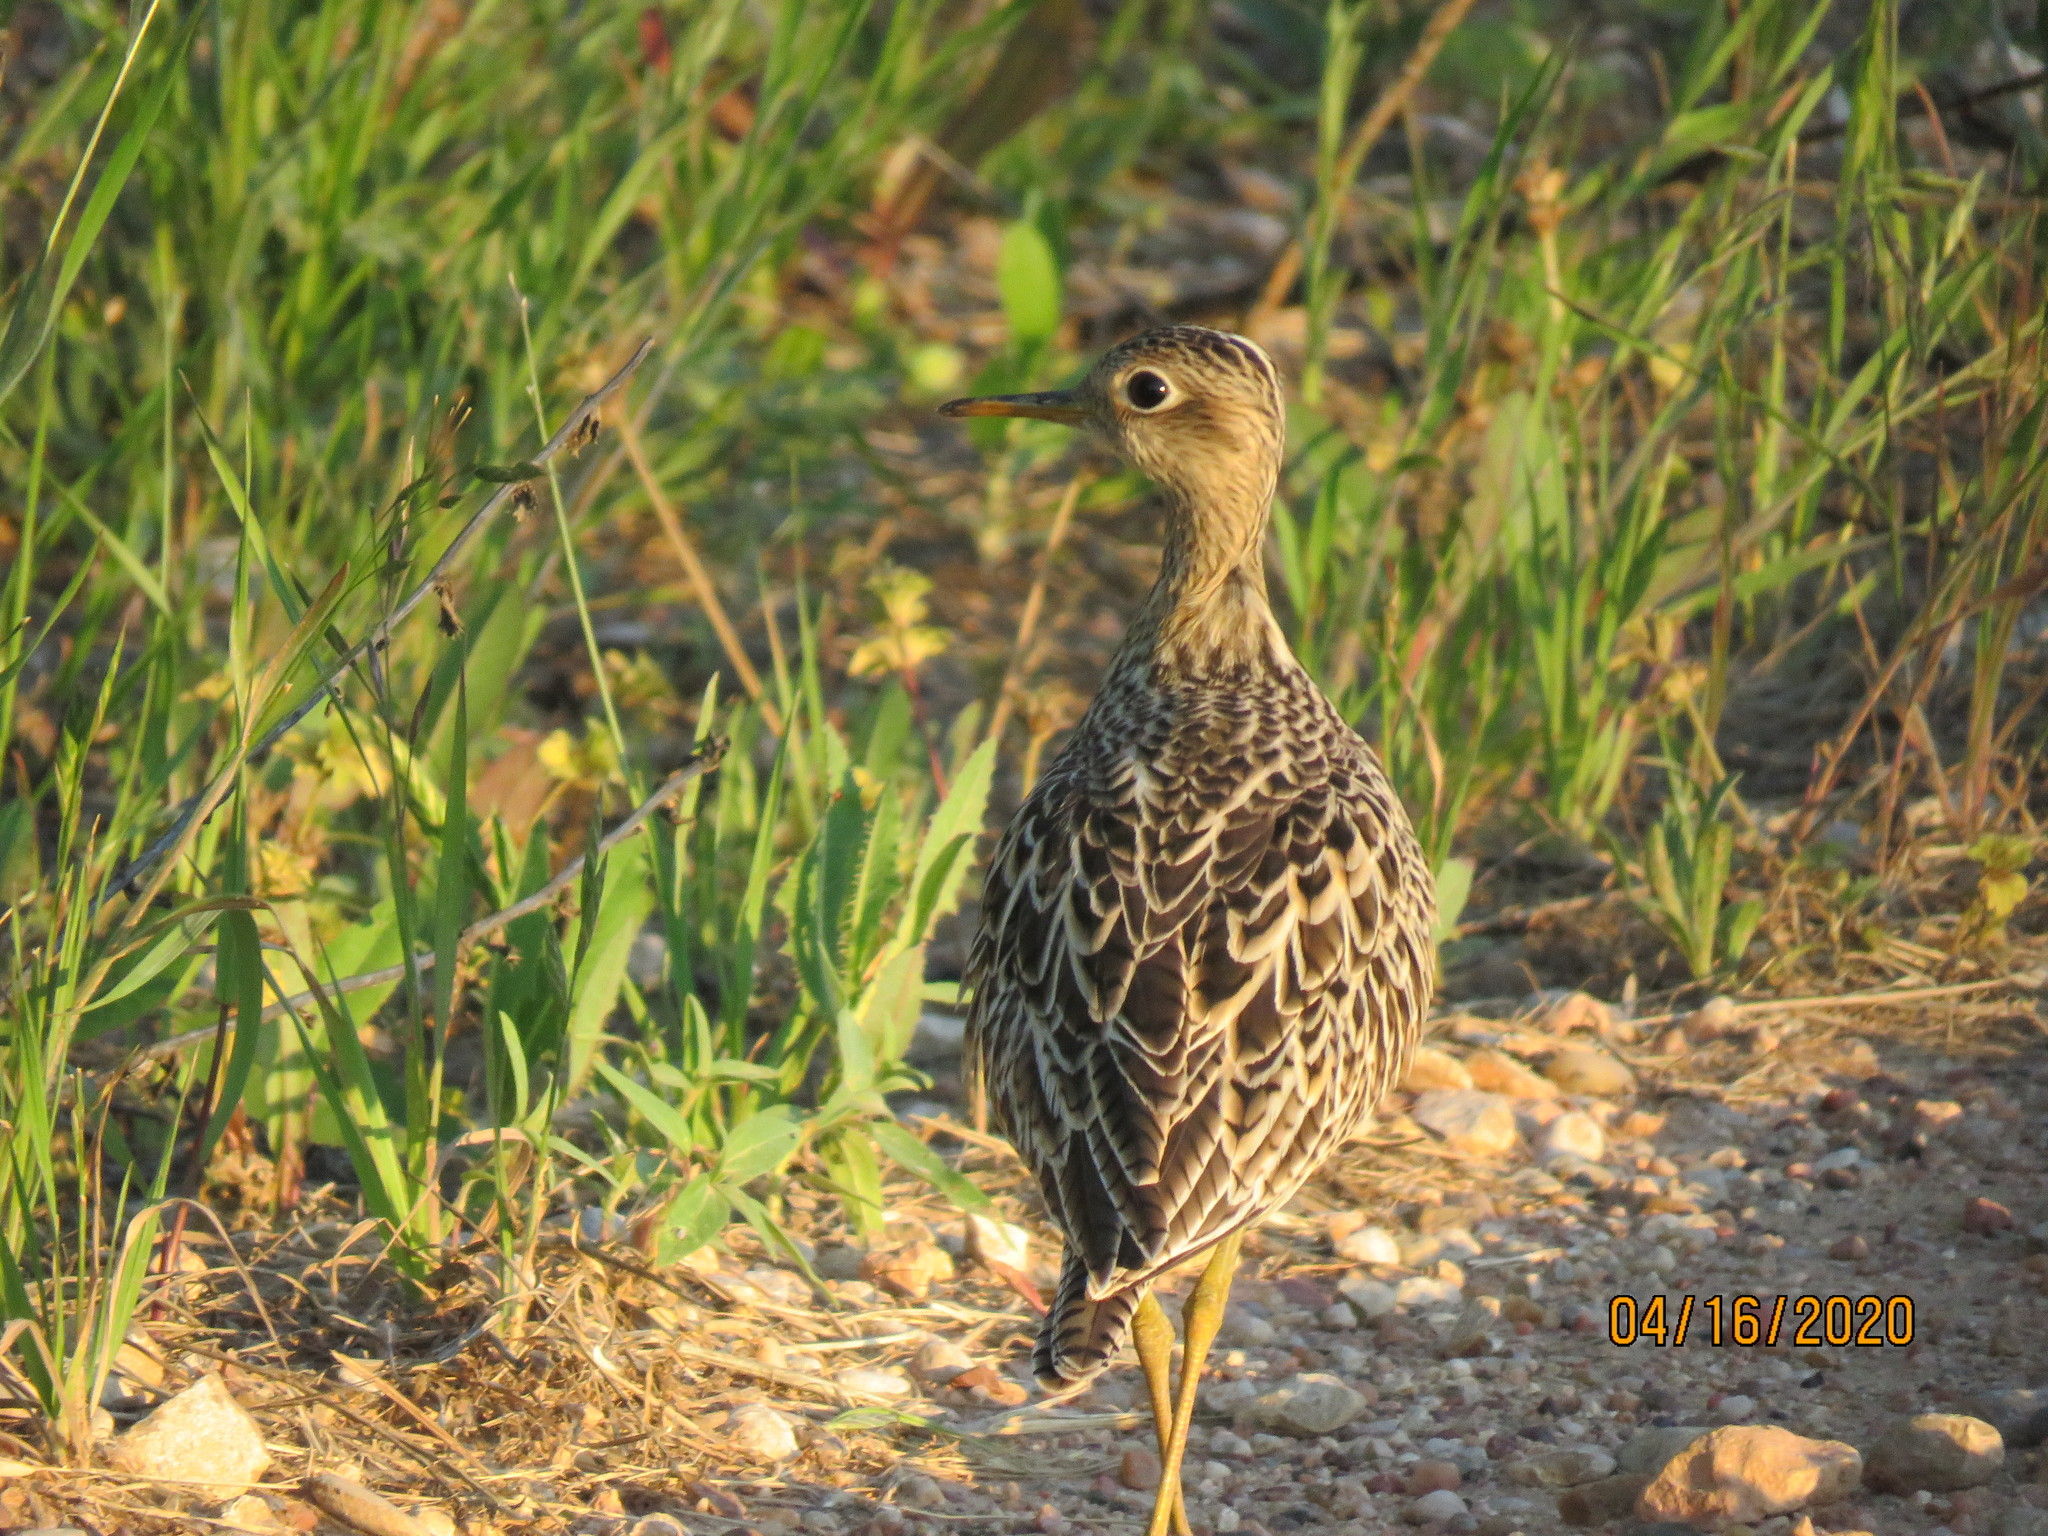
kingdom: Animalia
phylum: Chordata
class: Aves
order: Charadriiformes
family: Scolopacidae
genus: Bartramia
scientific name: Bartramia longicauda
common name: Upland sandpiper
